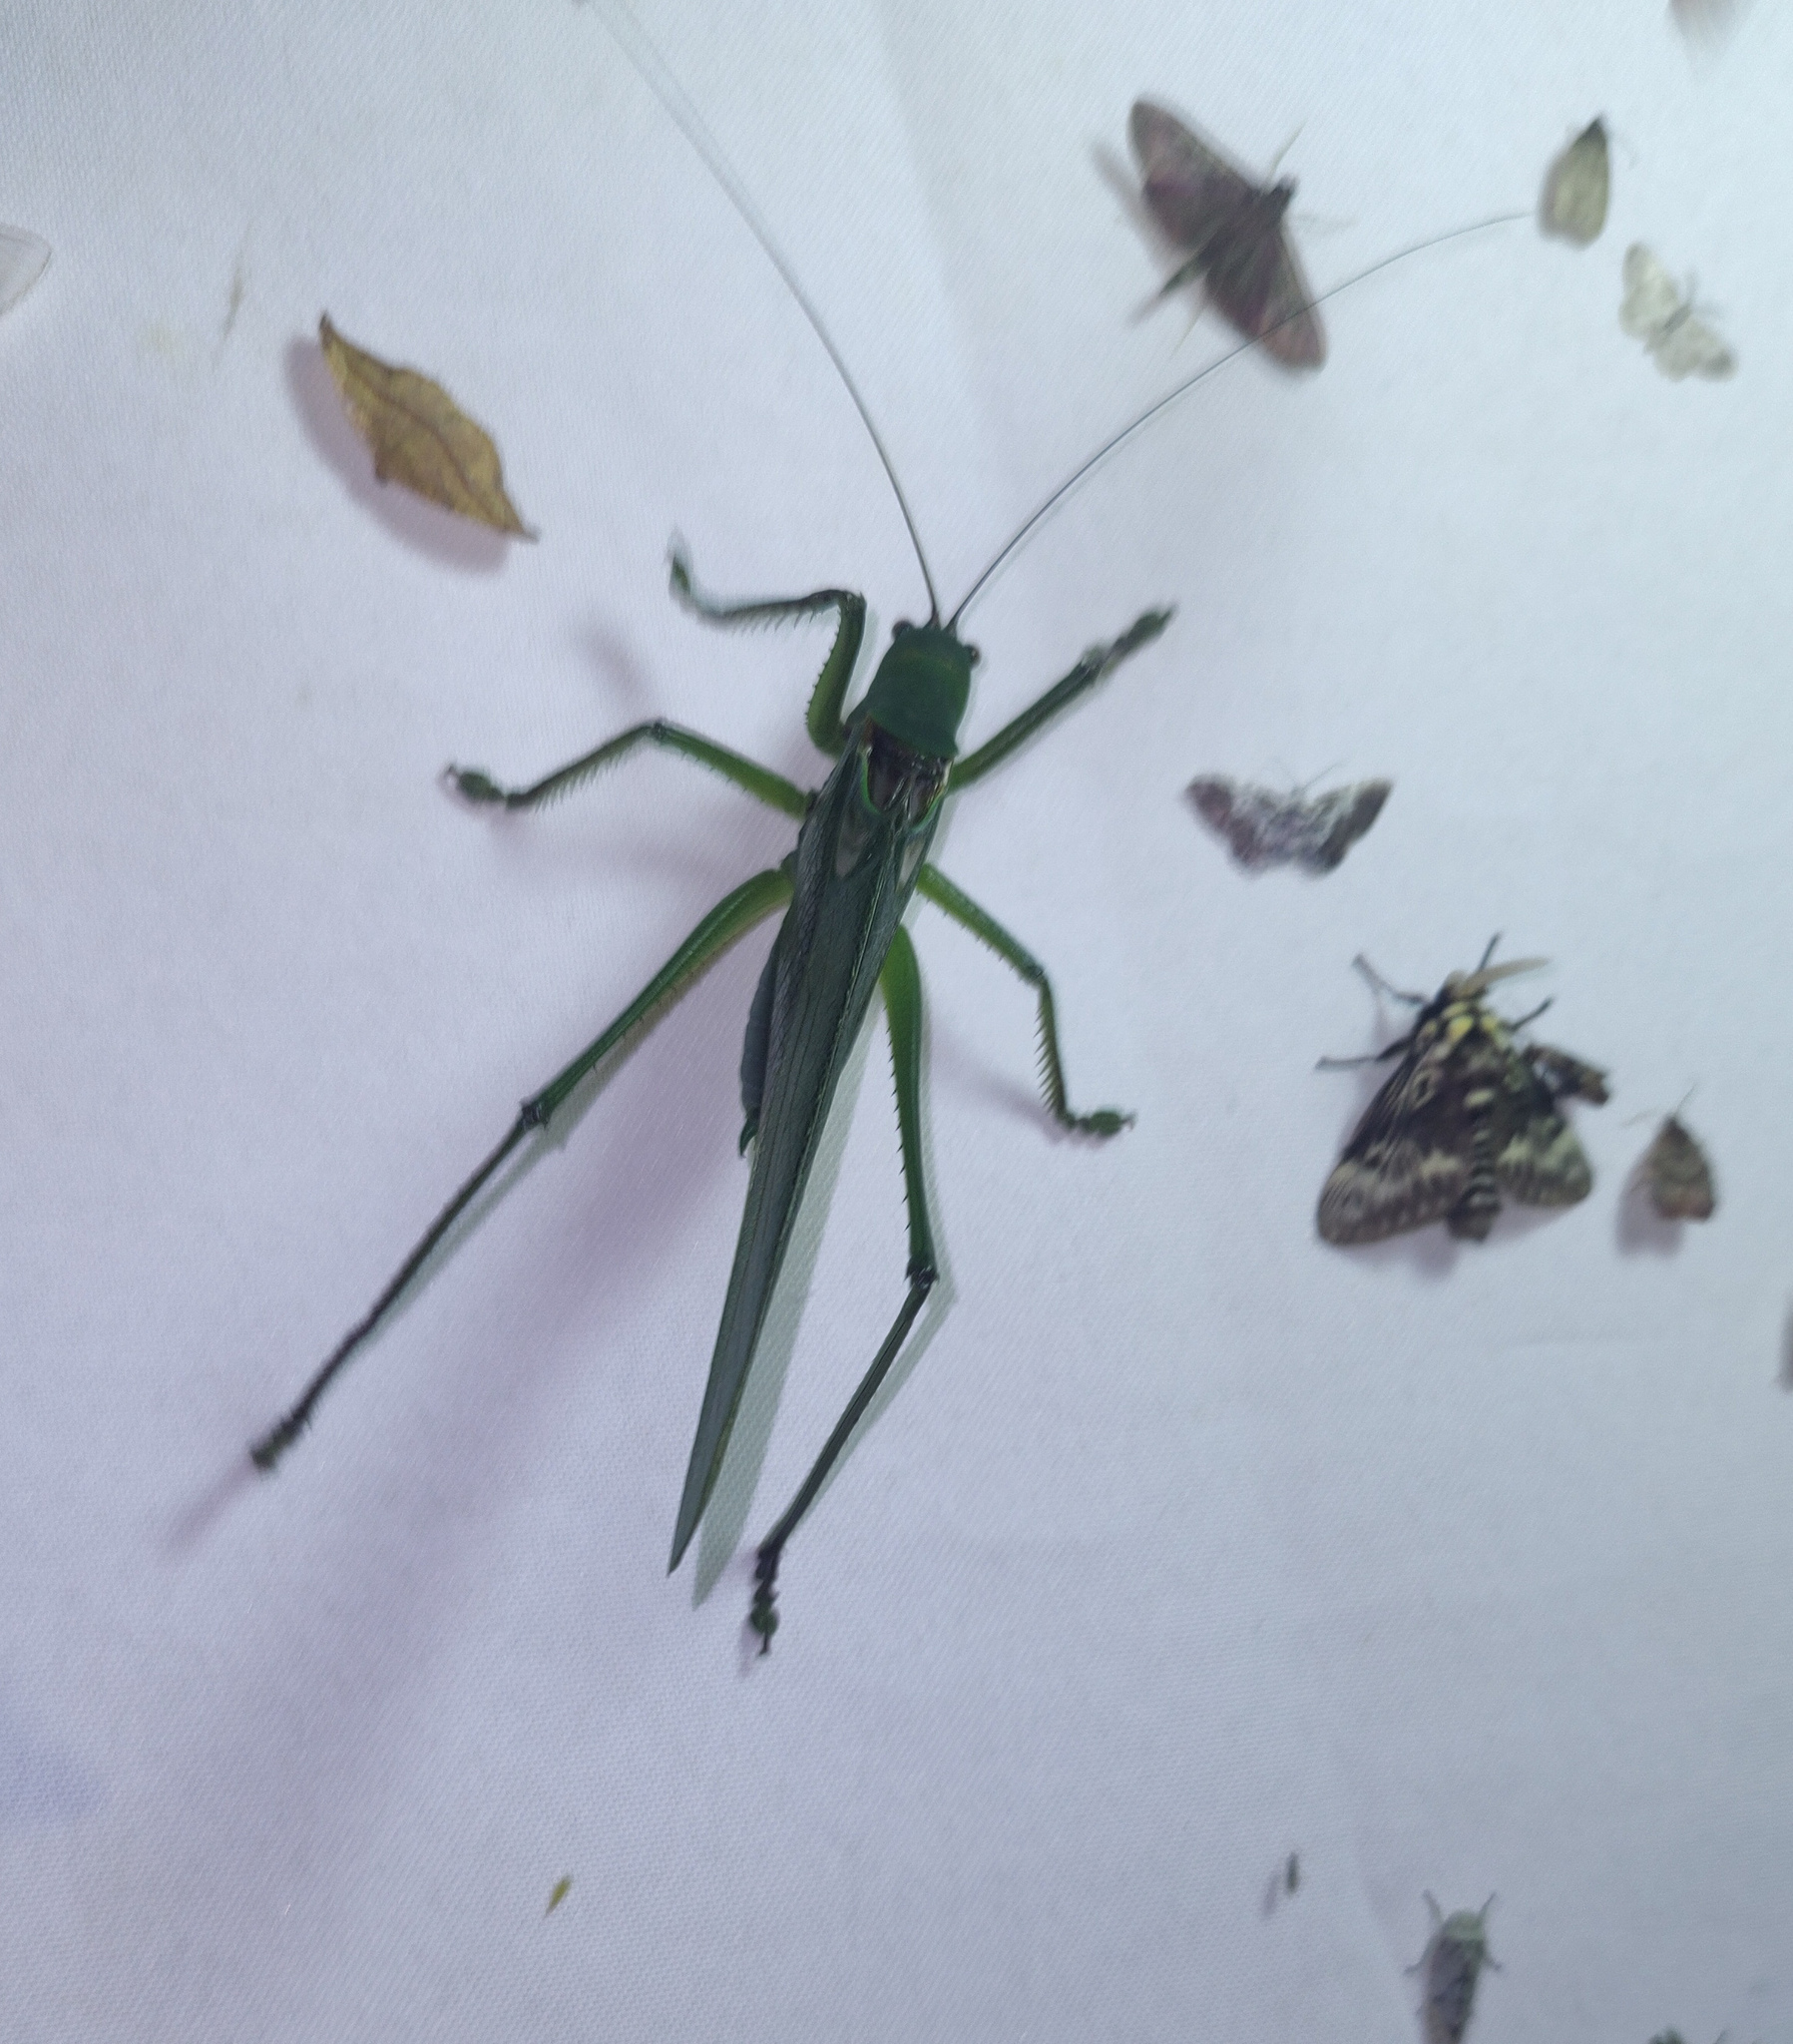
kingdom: Animalia
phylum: Arthropoda
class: Insecta
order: Orthoptera
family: Tettigoniidae
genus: Megatympanon
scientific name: Megatympanon speculatum
